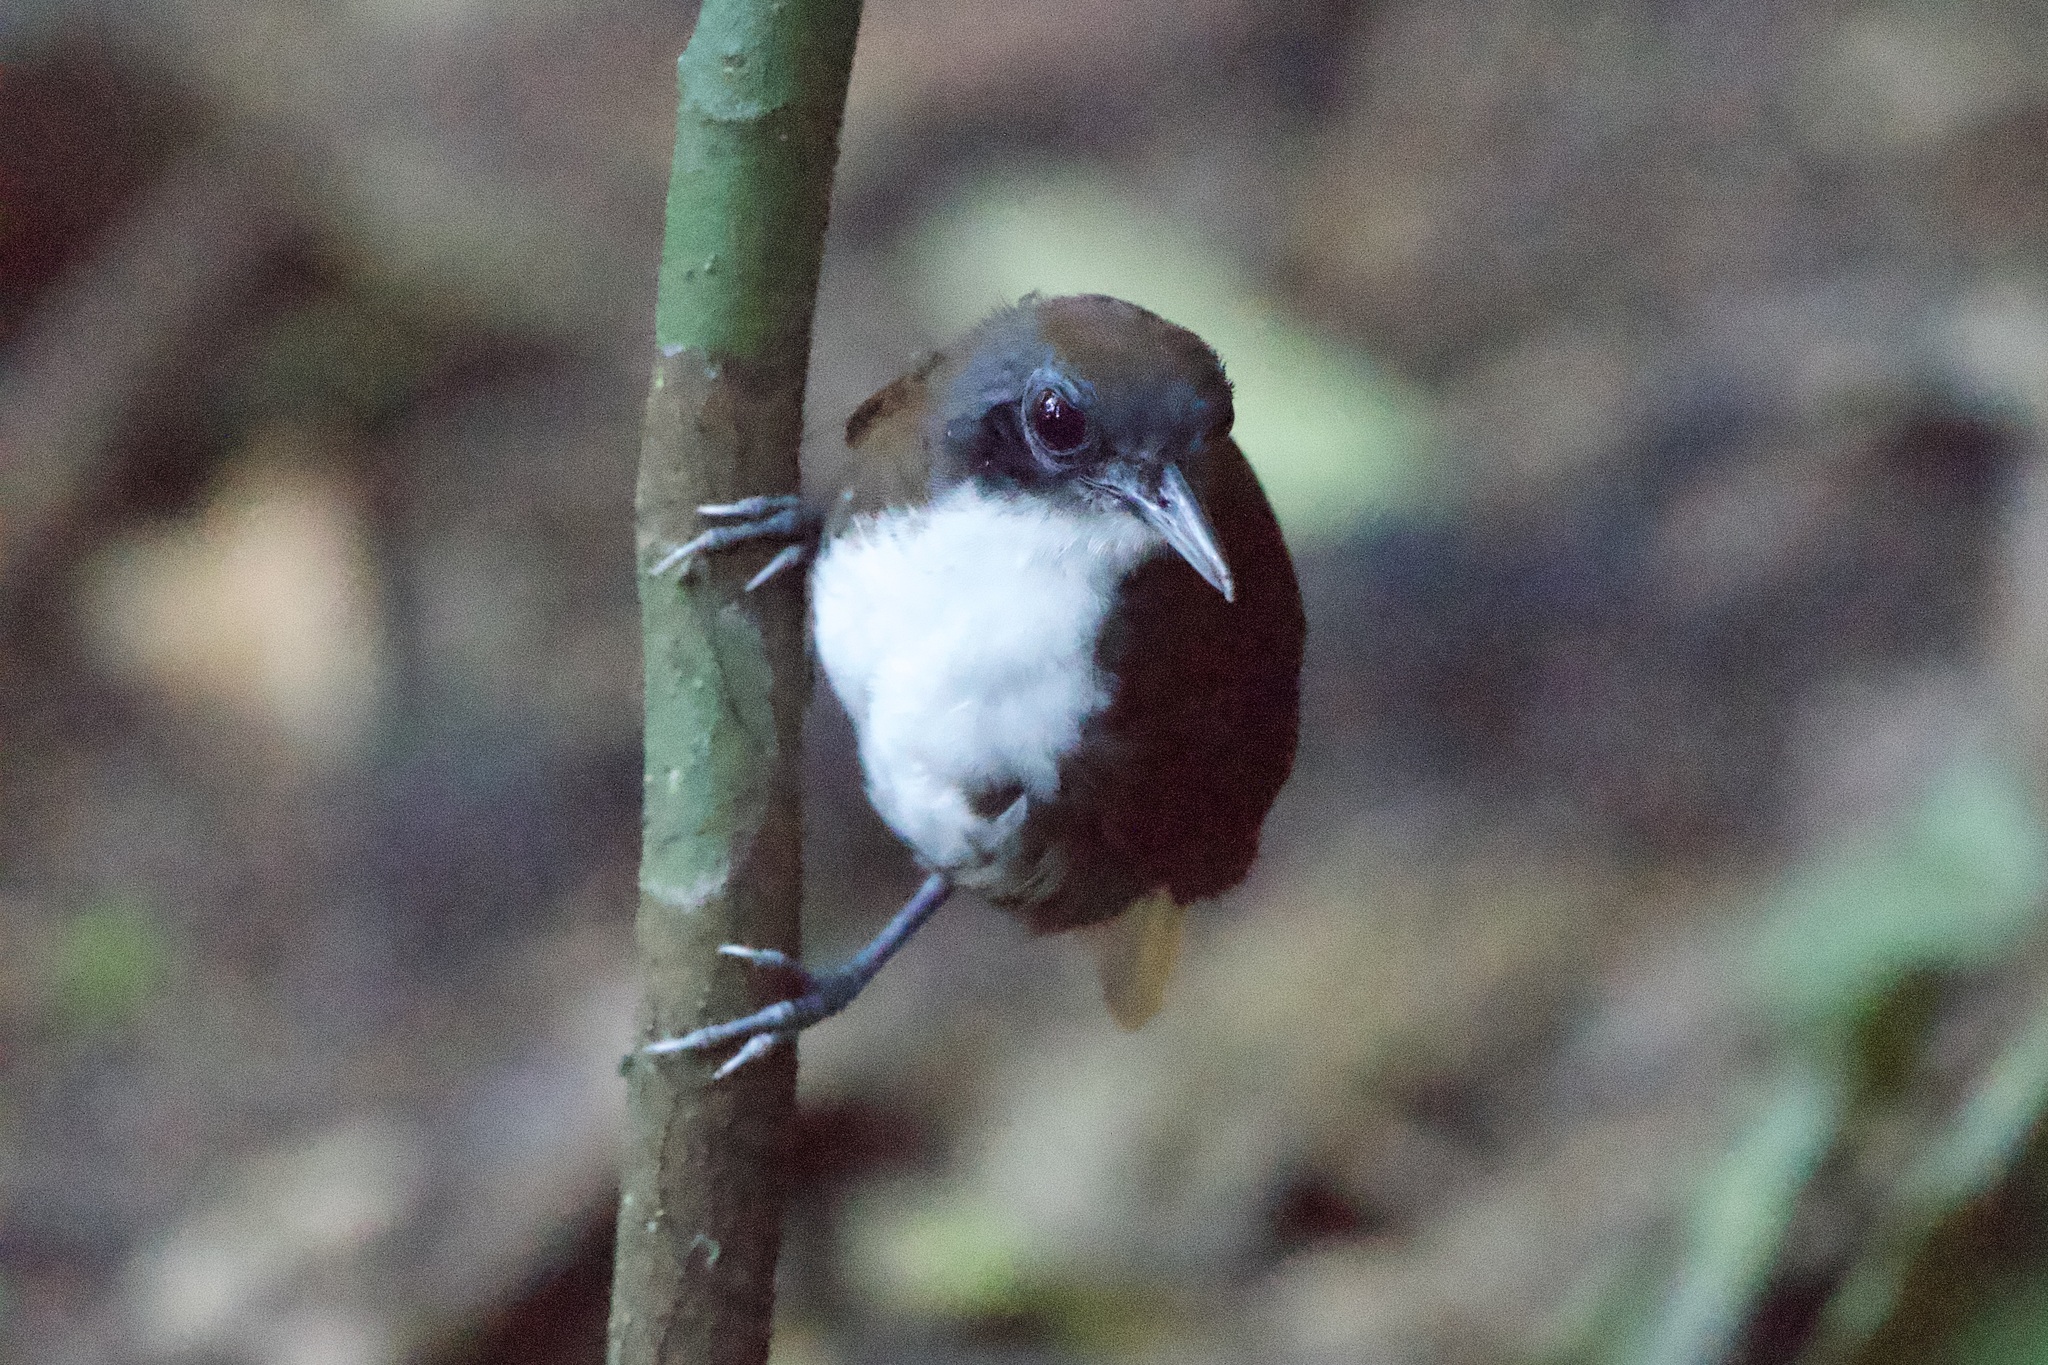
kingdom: Animalia
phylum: Chordata
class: Aves
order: Passeriformes
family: Thamnophilidae
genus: Gymnopithys
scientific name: Gymnopithys leucaspis
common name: White-cheeked antbird
